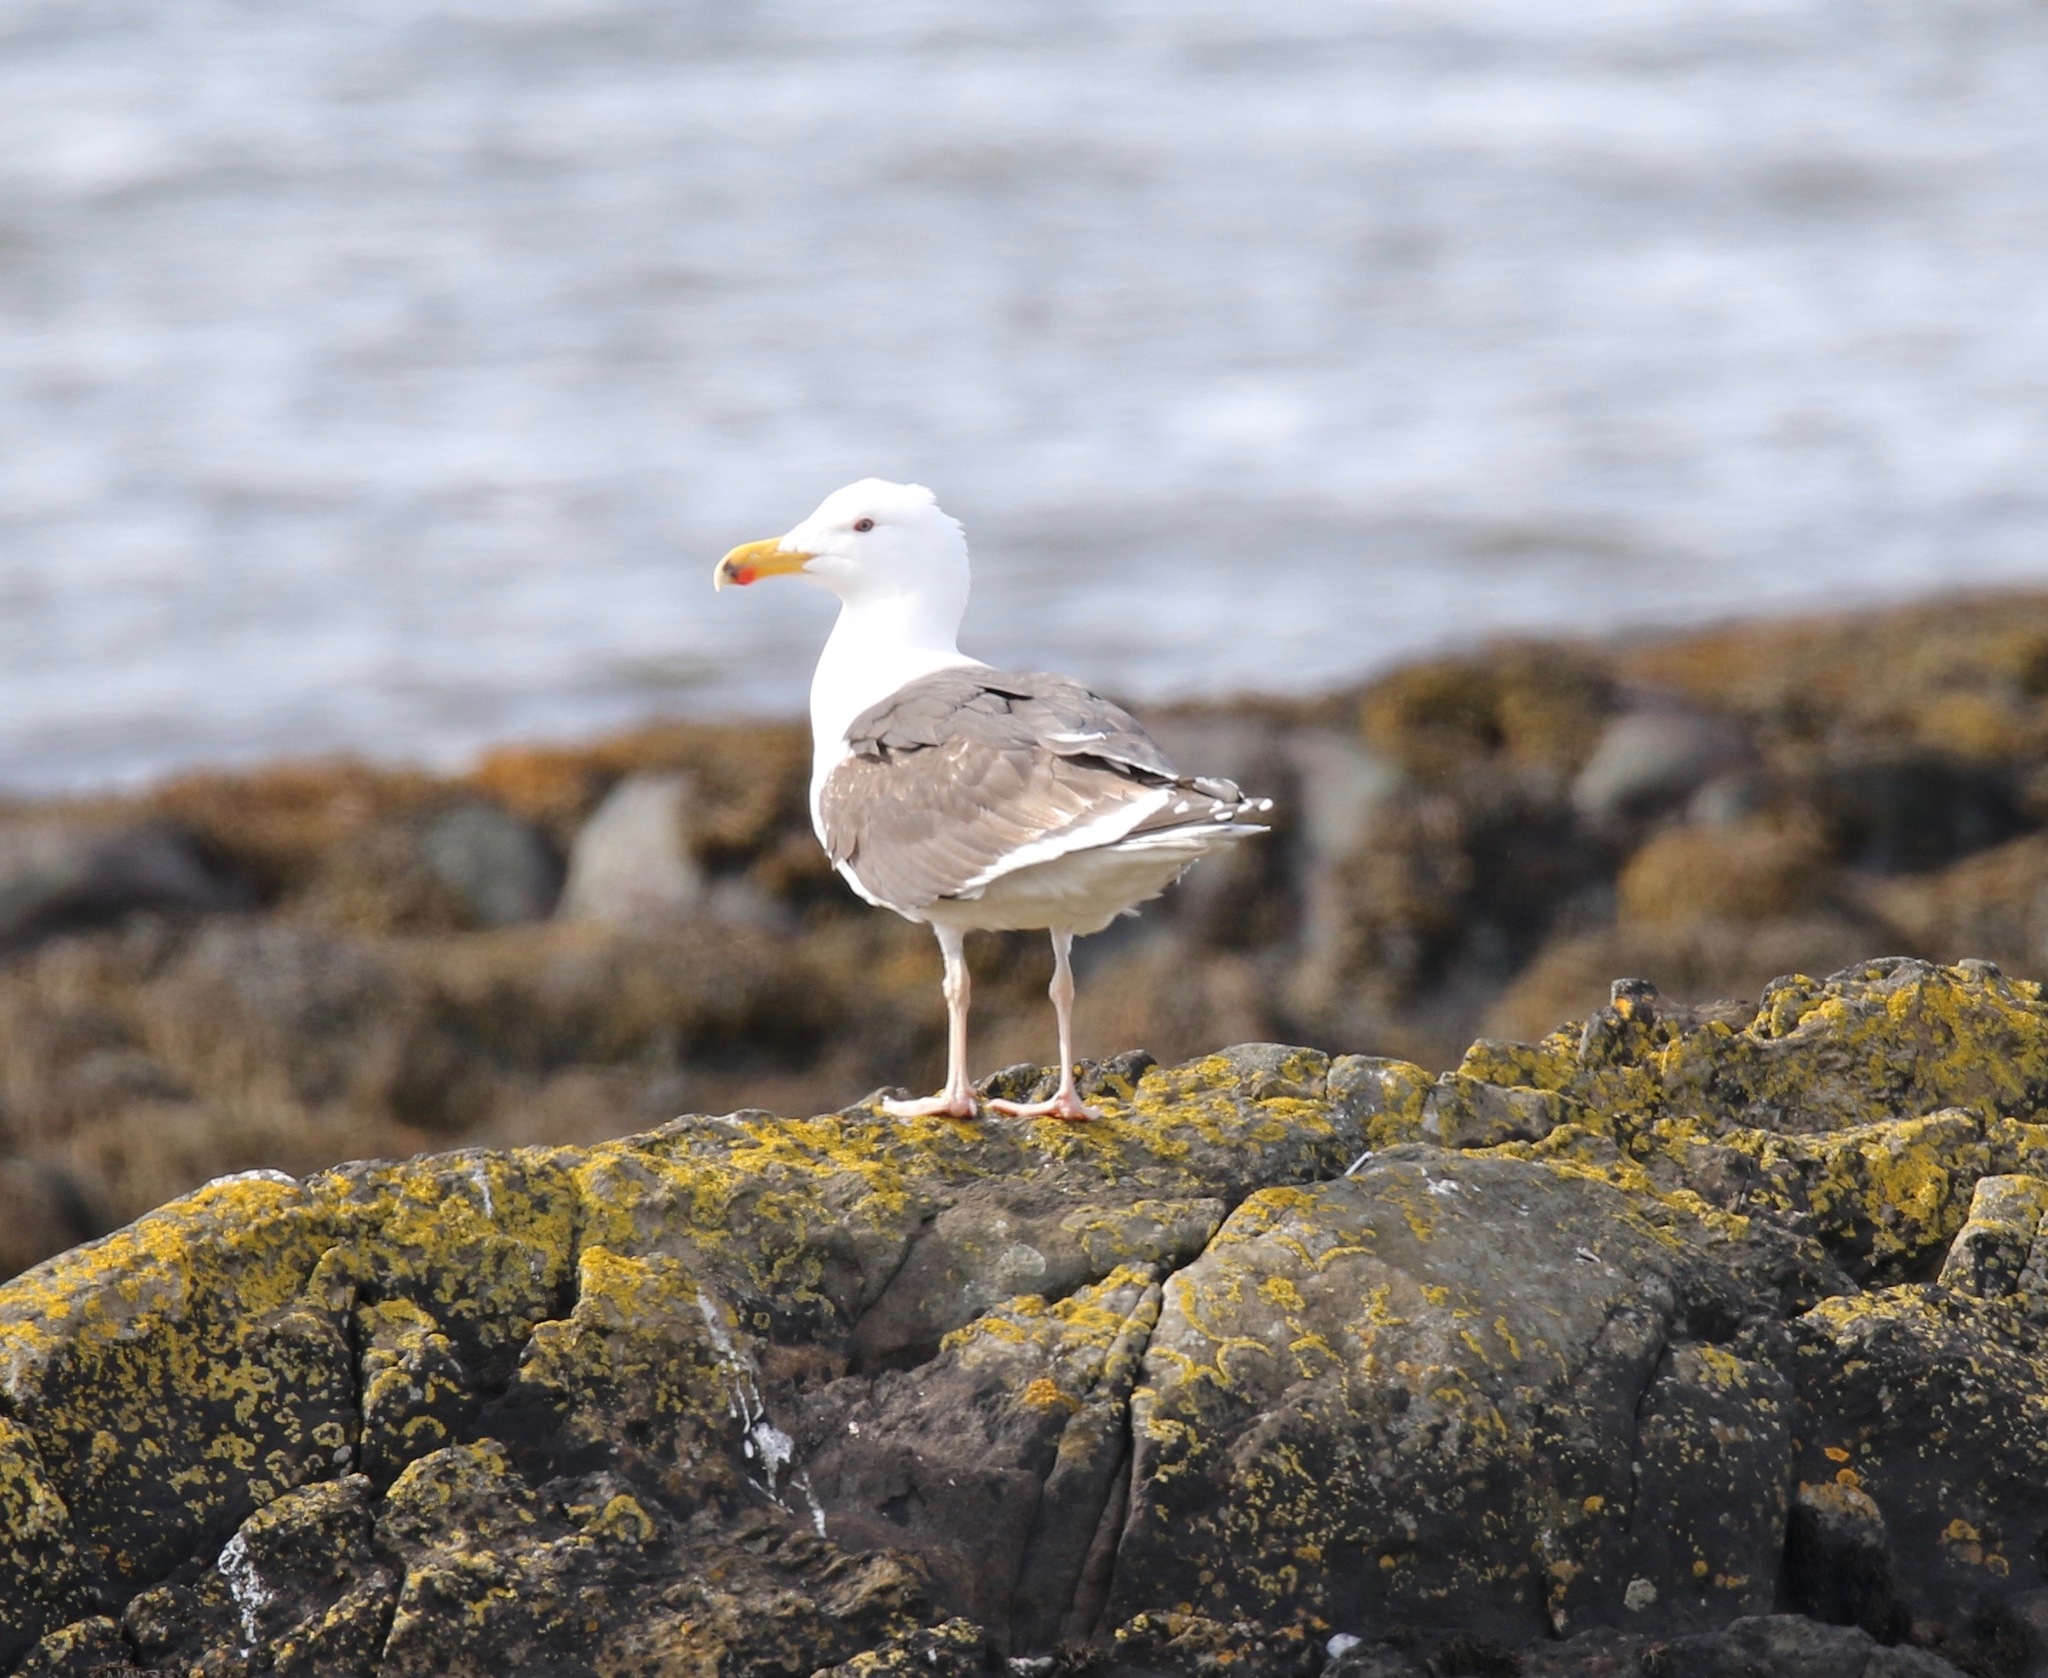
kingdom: Animalia
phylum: Chordata
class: Aves
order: Charadriiformes
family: Laridae
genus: Larus
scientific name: Larus fuscus
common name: Lesser black-backed gull
